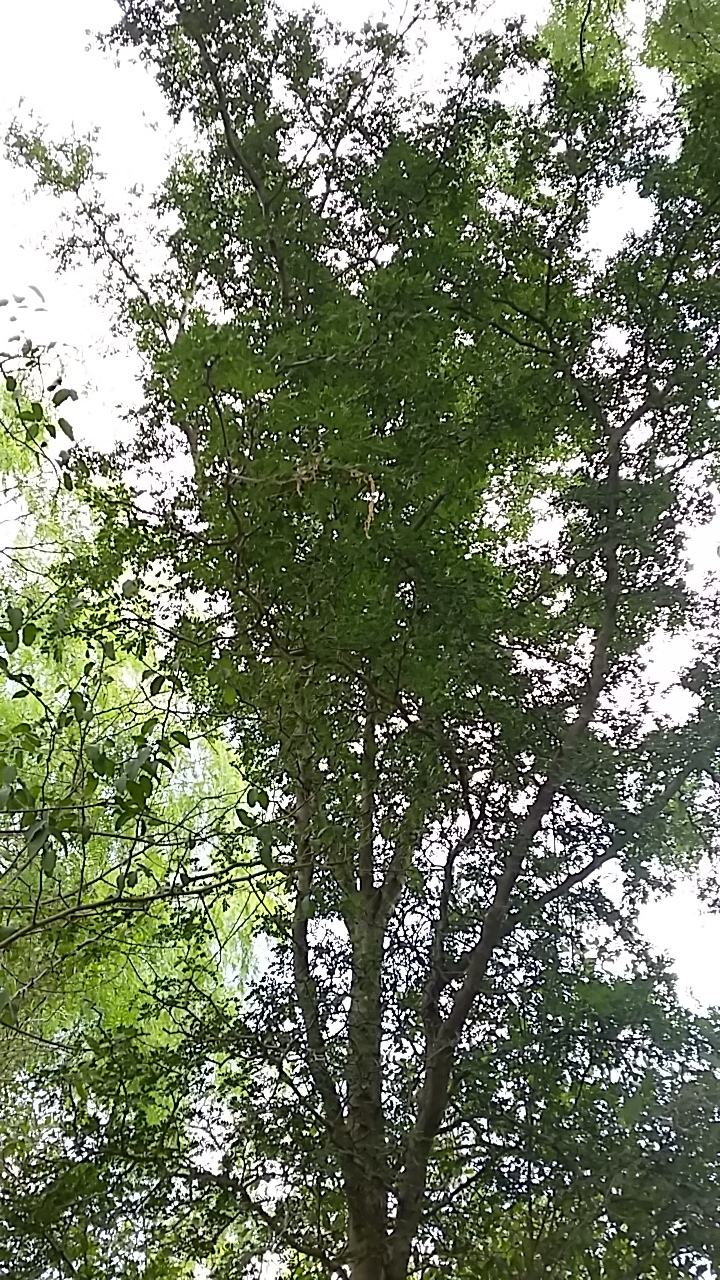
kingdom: Plantae
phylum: Tracheophyta
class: Magnoliopsida
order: Fabales
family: Fabaceae
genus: Ebenopsis
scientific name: Ebenopsis ebano
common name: Ebony blackbead
